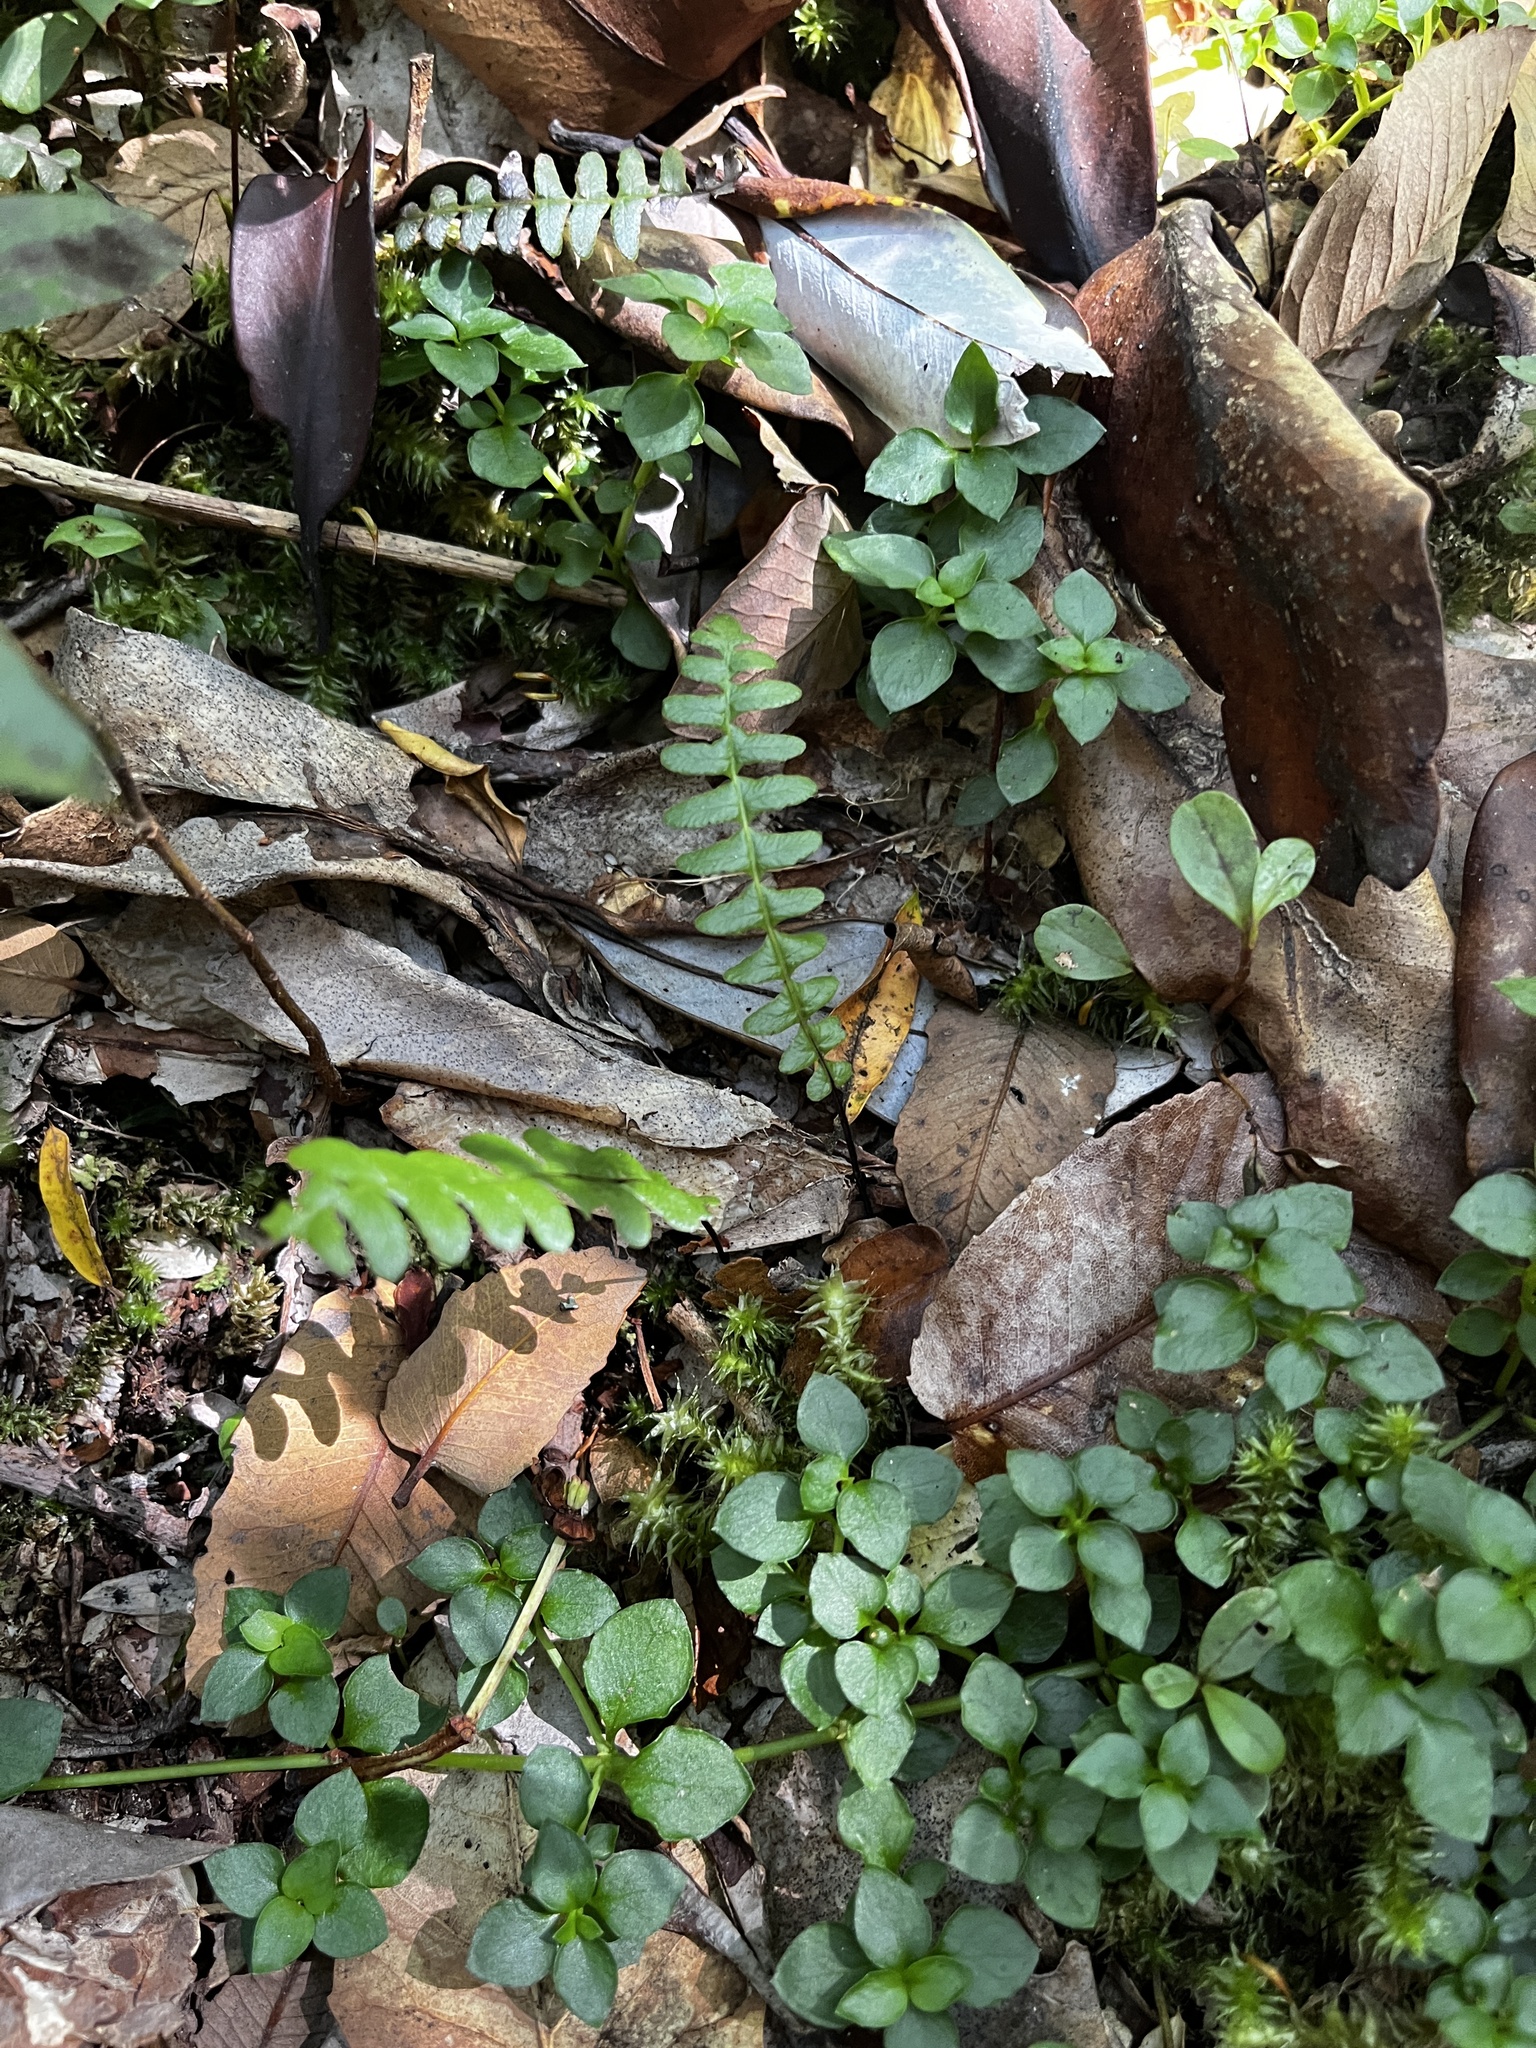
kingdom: Plantae
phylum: Tracheophyta
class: Polypodiopsida
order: Polypodiales
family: Blechnaceae
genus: Austroblechnum
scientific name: Austroblechnum penna-marina
